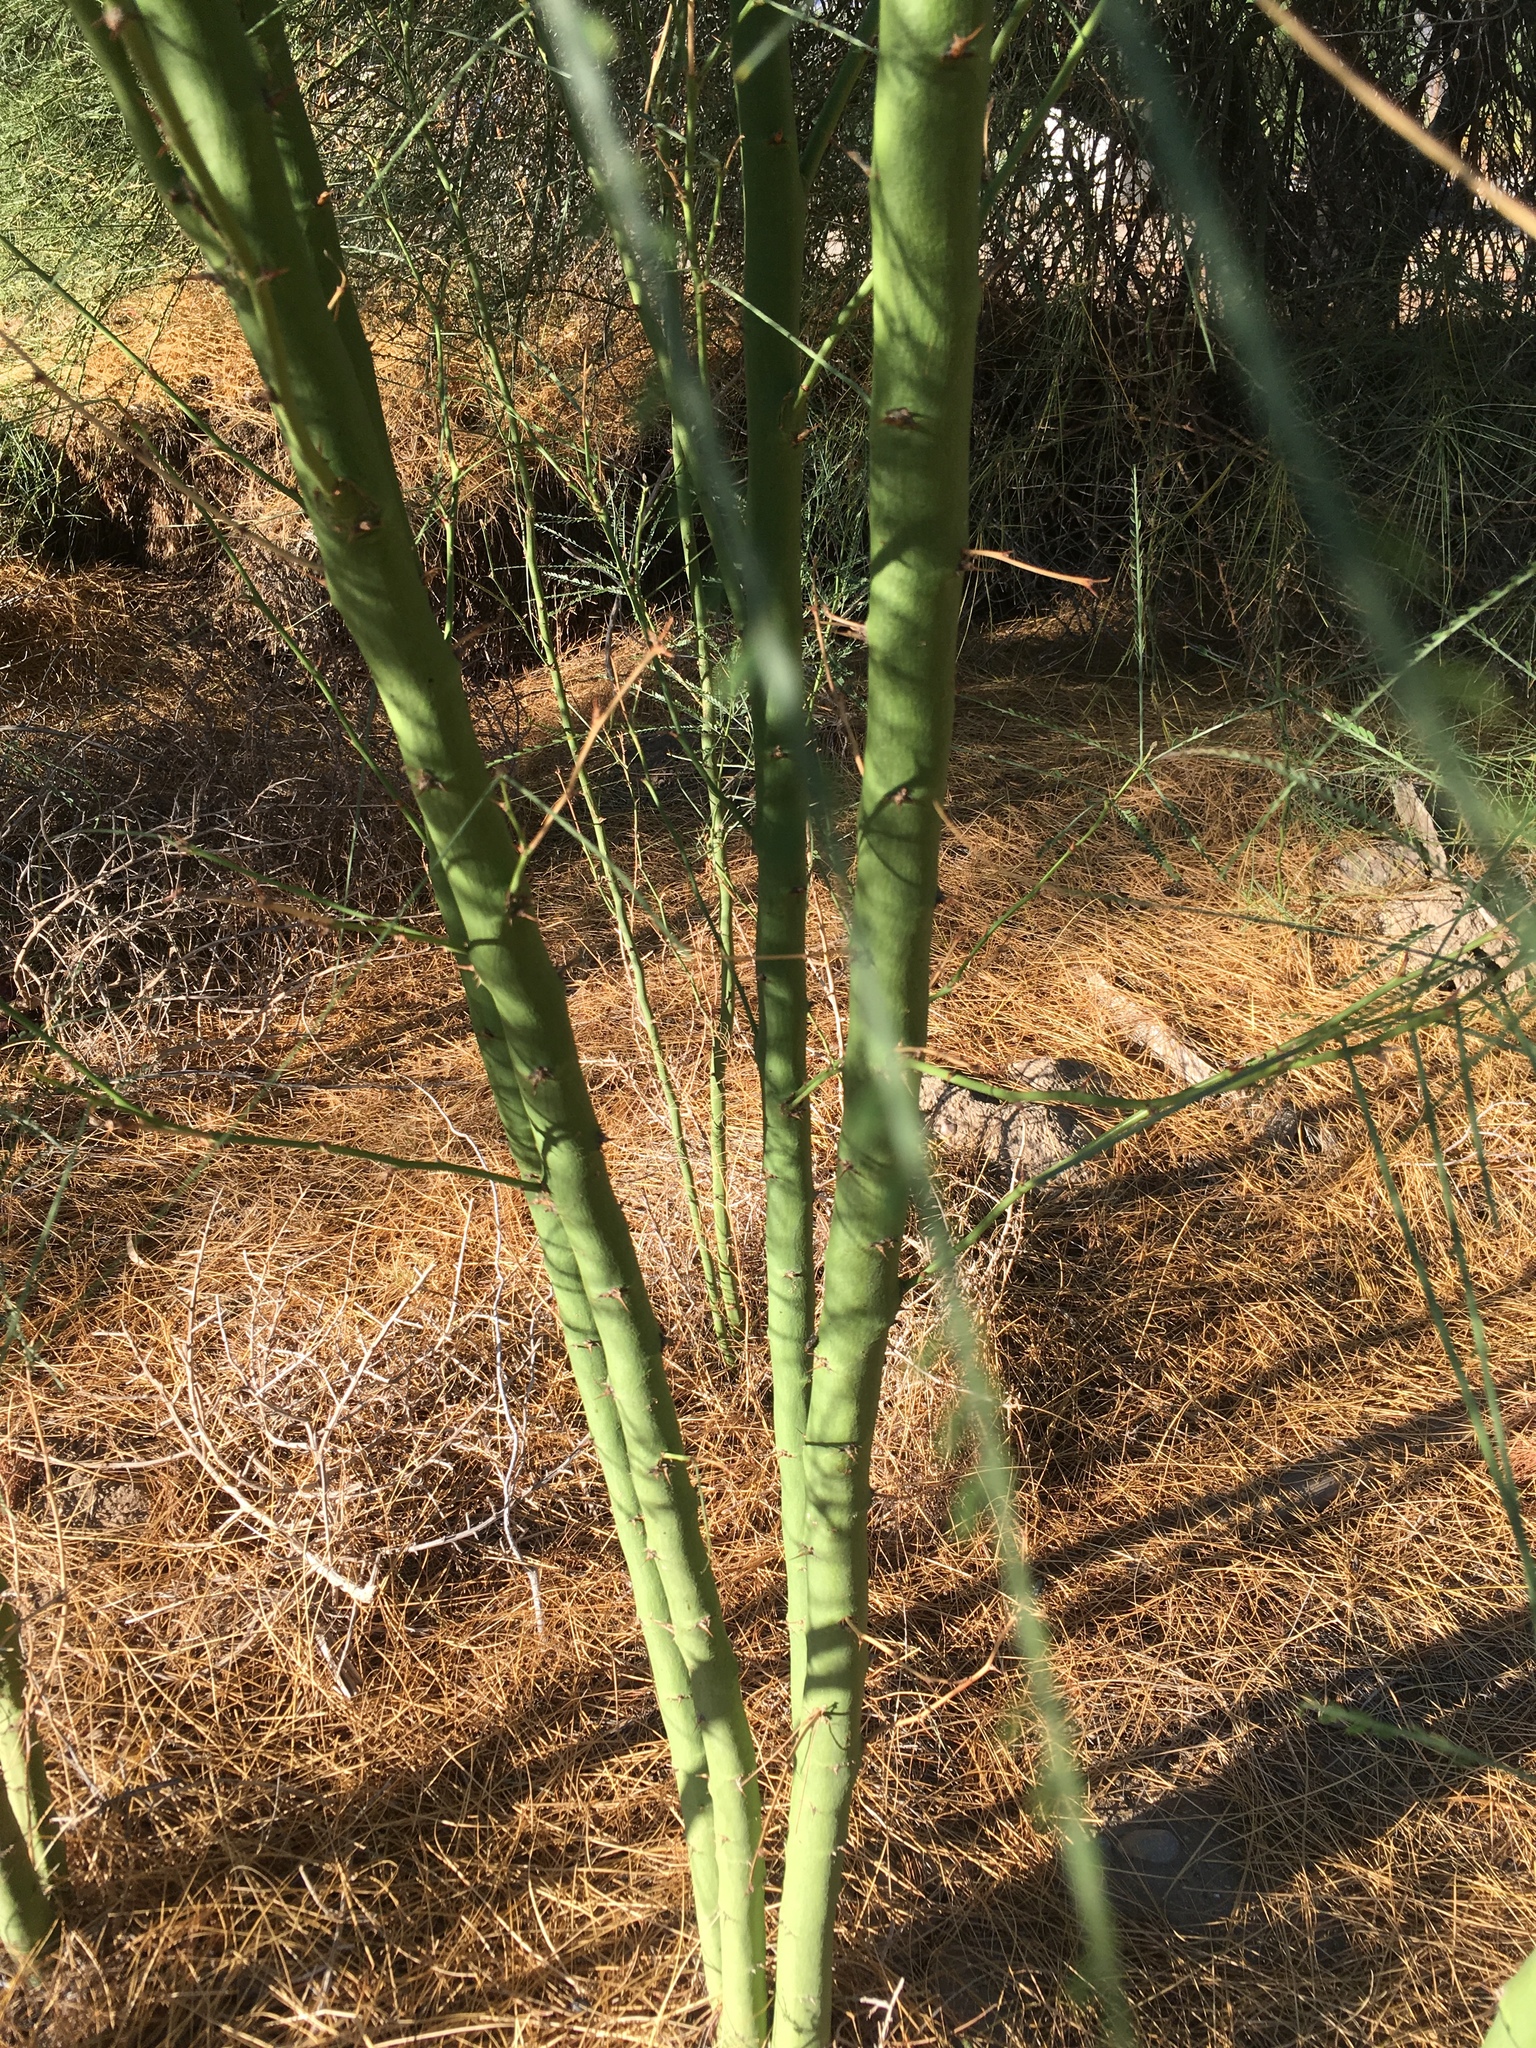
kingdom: Plantae
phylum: Tracheophyta
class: Magnoliopsida
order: Fabales
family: Fabaceae
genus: Parkinsonia
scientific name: Parkinsonia aculeata
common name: Jerusalem thorn
